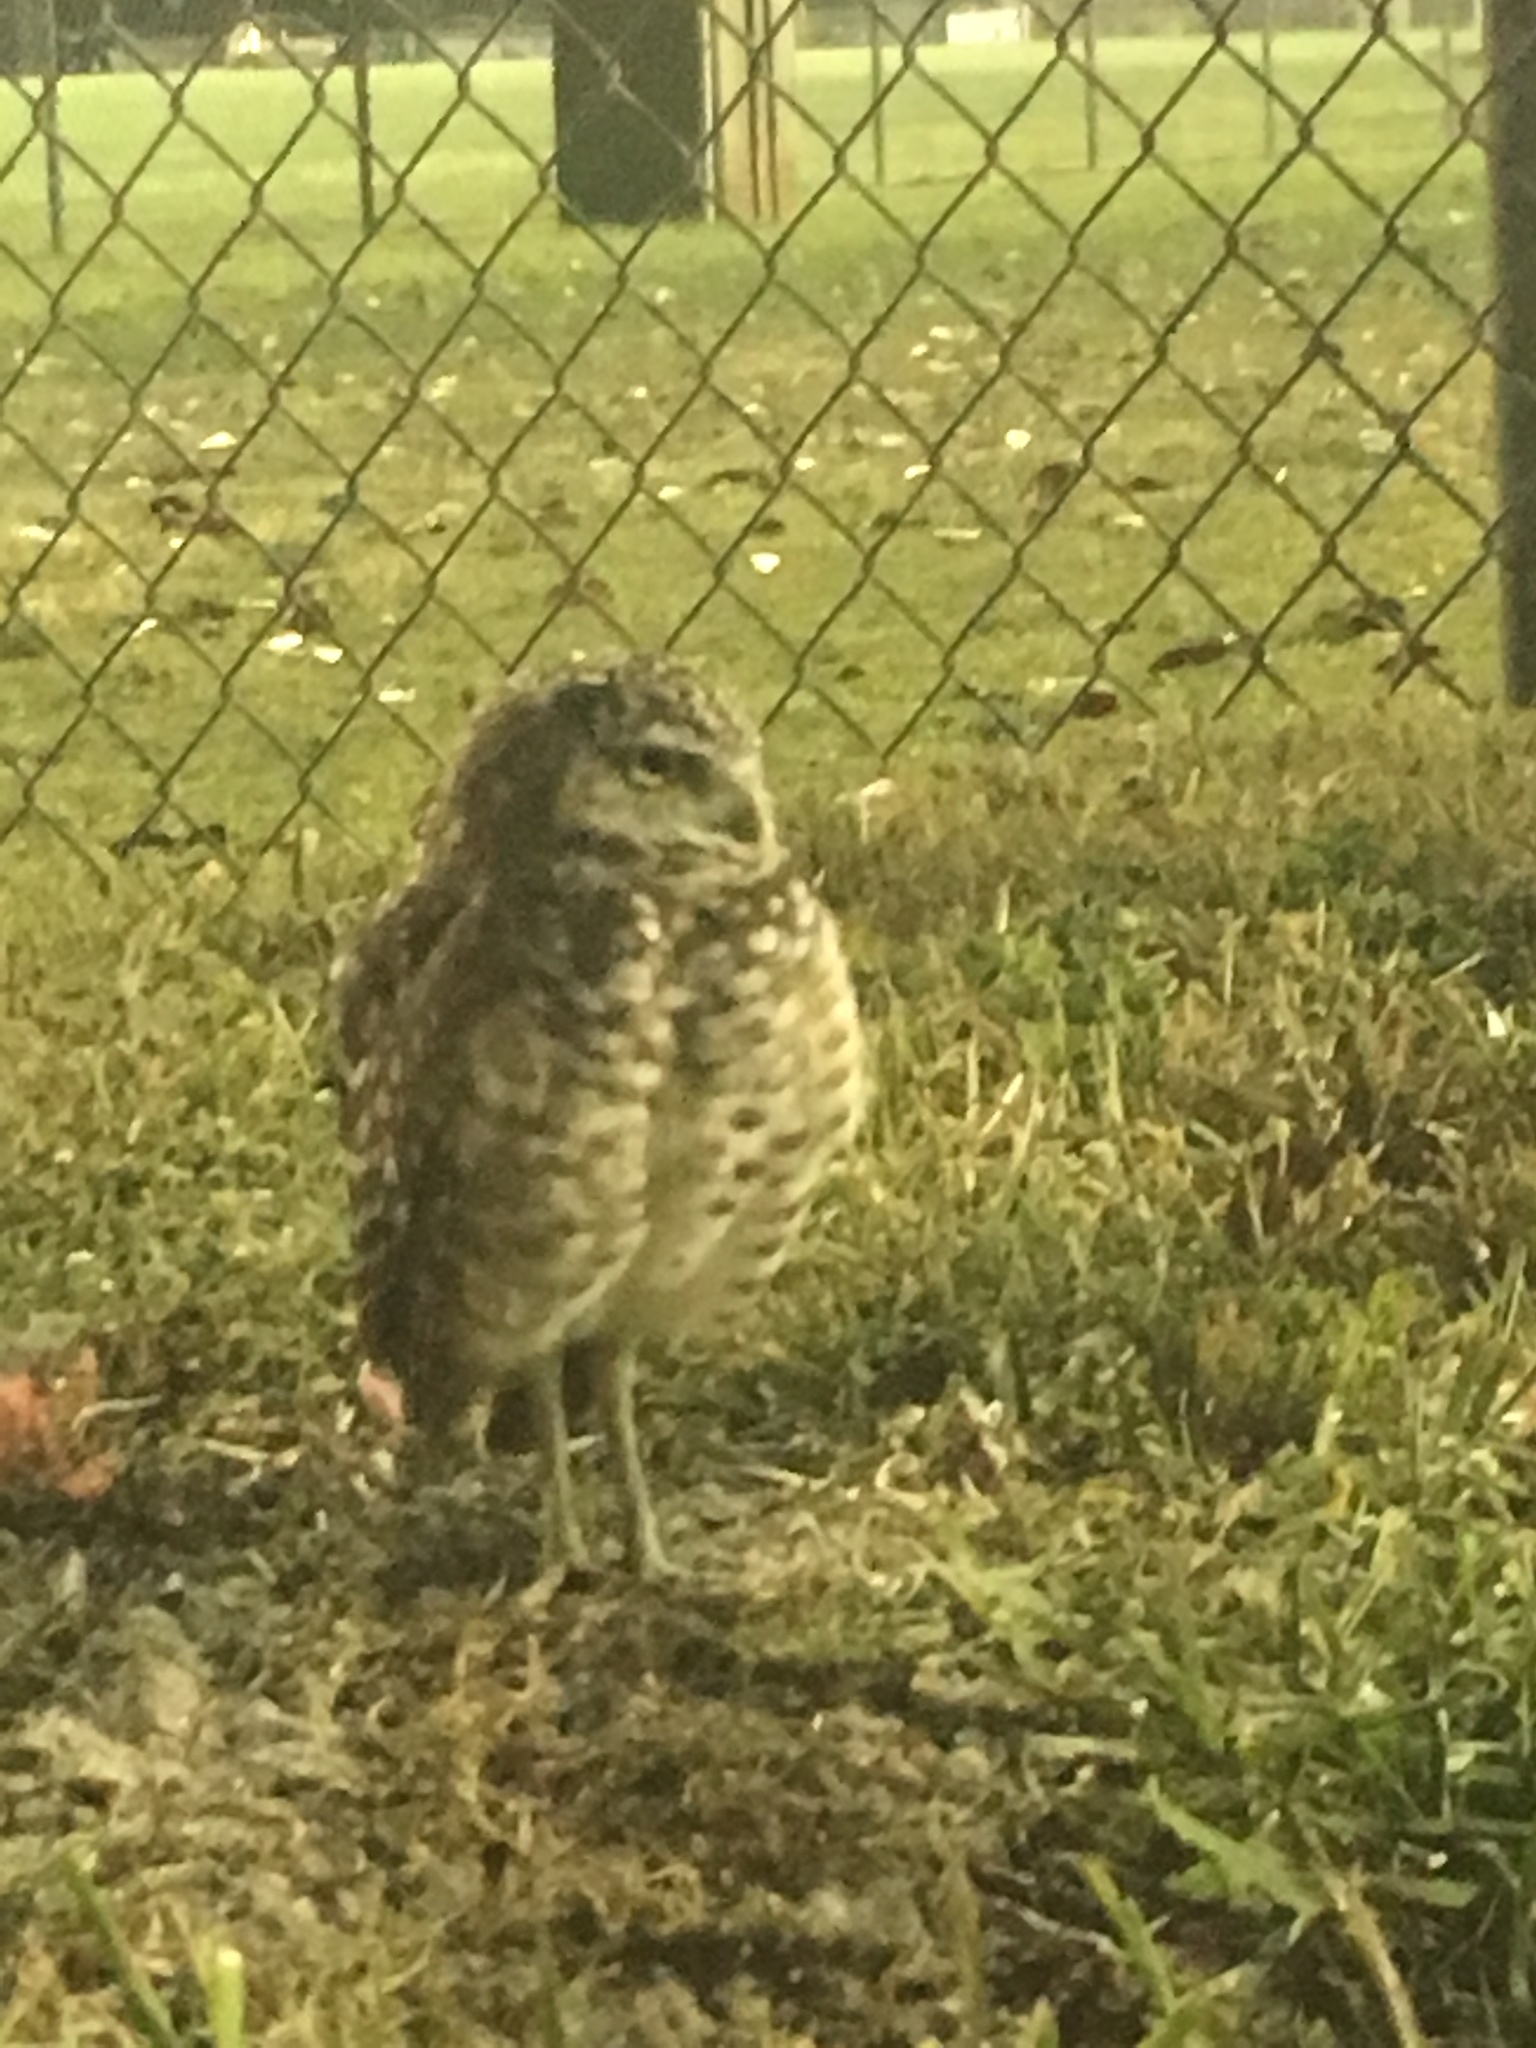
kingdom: Animalia
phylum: Chordata
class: Aves
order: Strigiformes
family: Strigidae
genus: Athene
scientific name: Athene cunicularia
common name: Burrowing owl
